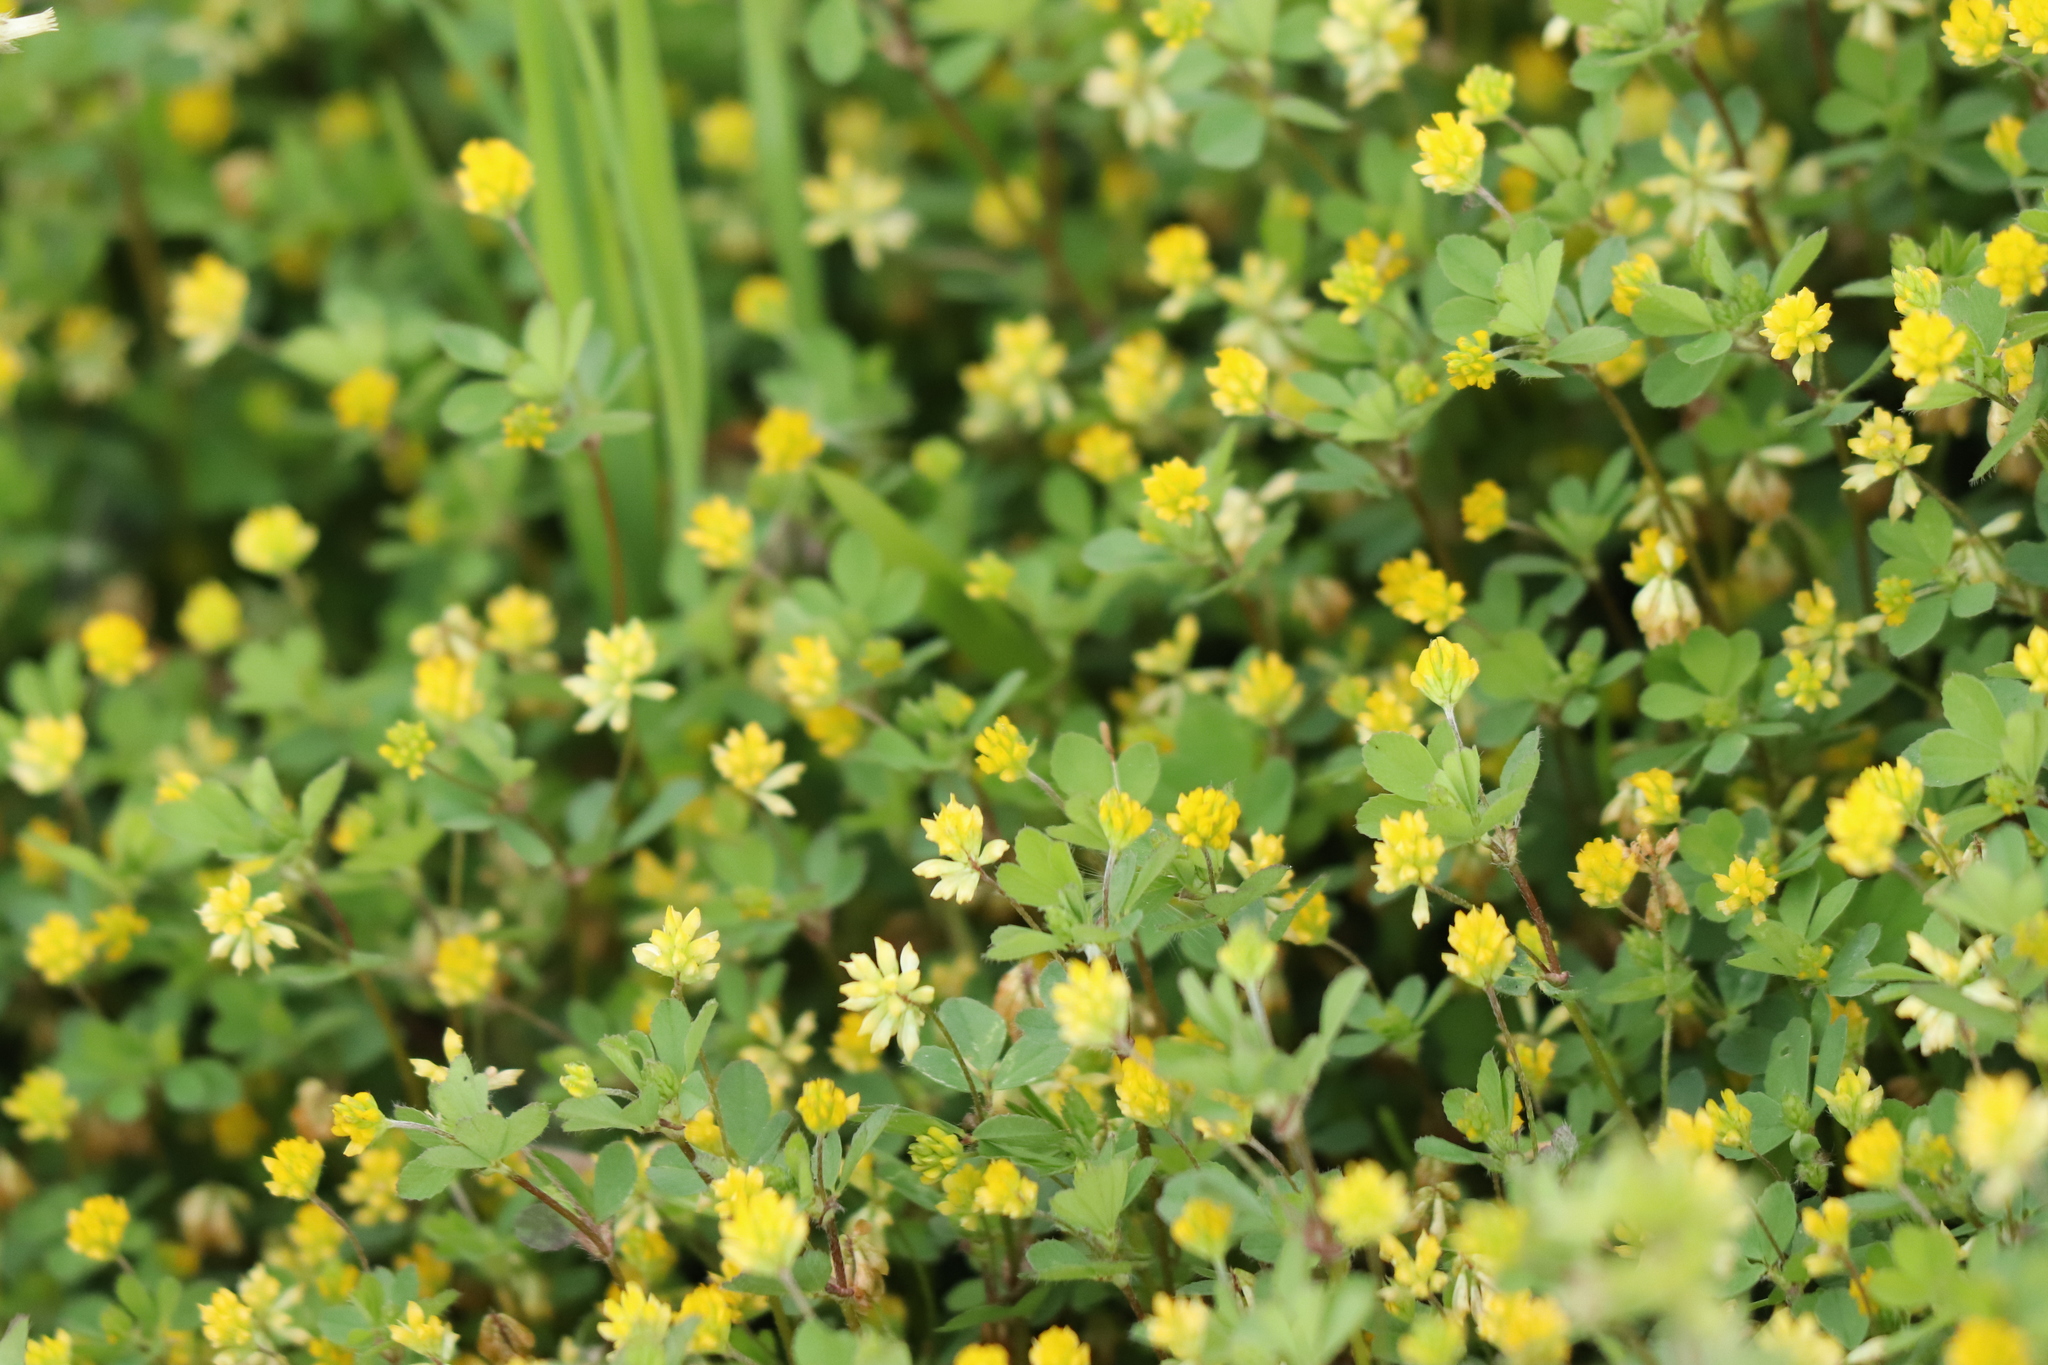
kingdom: Plantae
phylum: Tracheophyta
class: Magnoliopsida
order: Fabales
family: Fabaceae
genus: Trifolium
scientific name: Trifolium dubium
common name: Suckling clover
